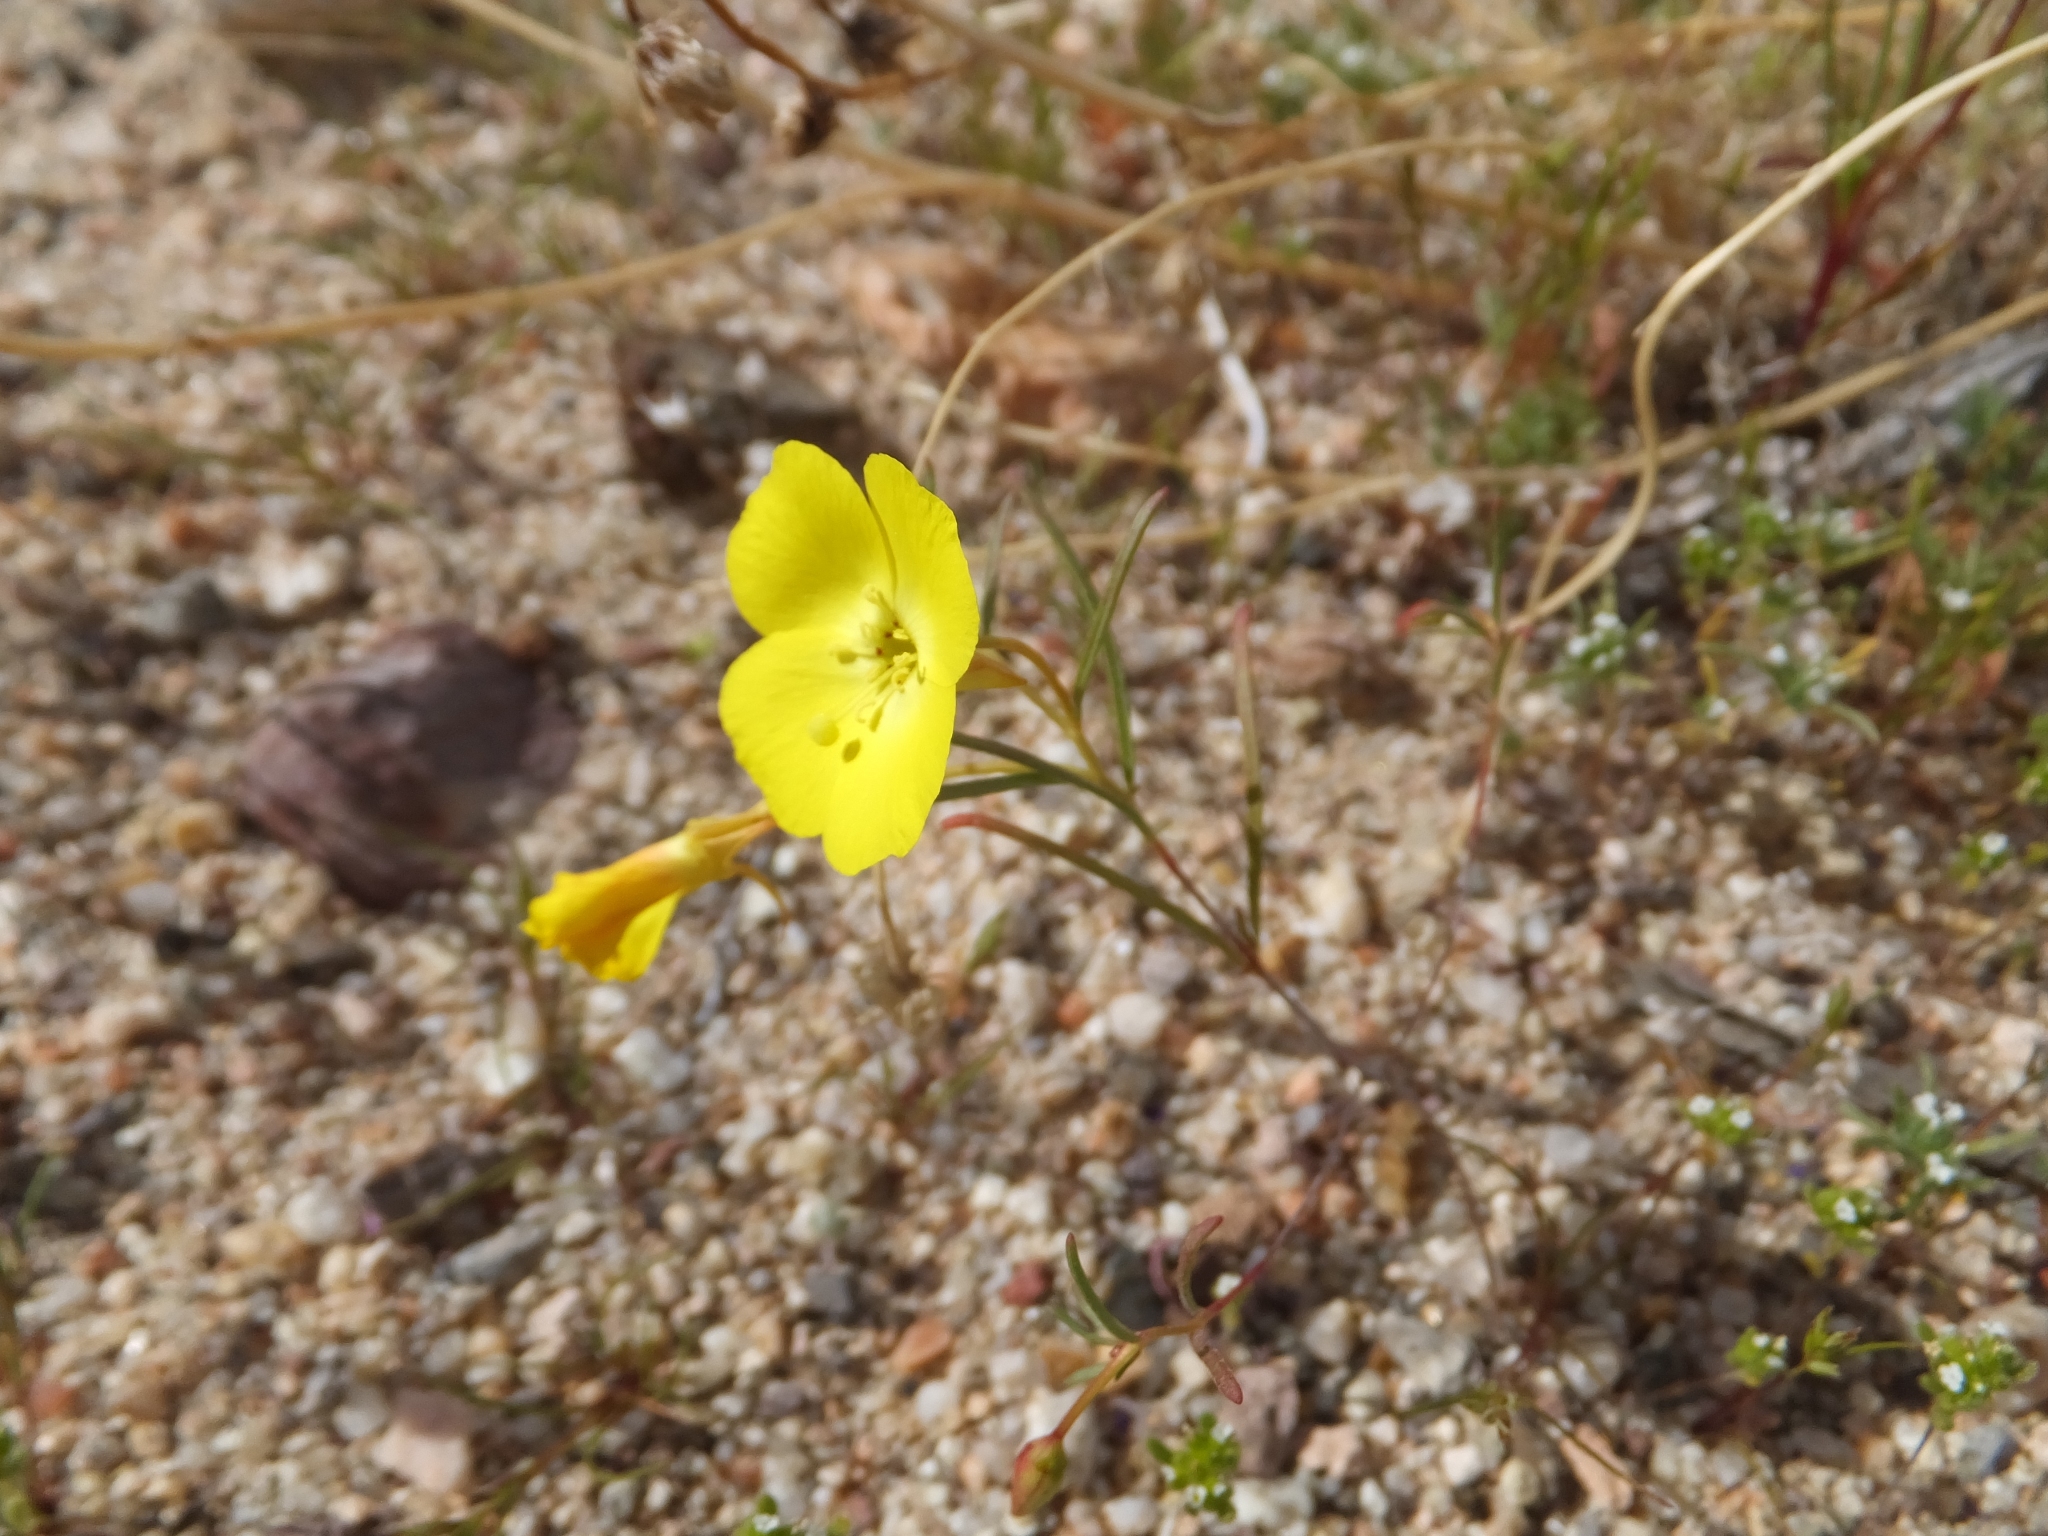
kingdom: Plantae
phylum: Tracheophyta
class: Magnoliopsida
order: Myrtales
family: Onagraceae
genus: Camissonia
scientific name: Camissonia campestris
